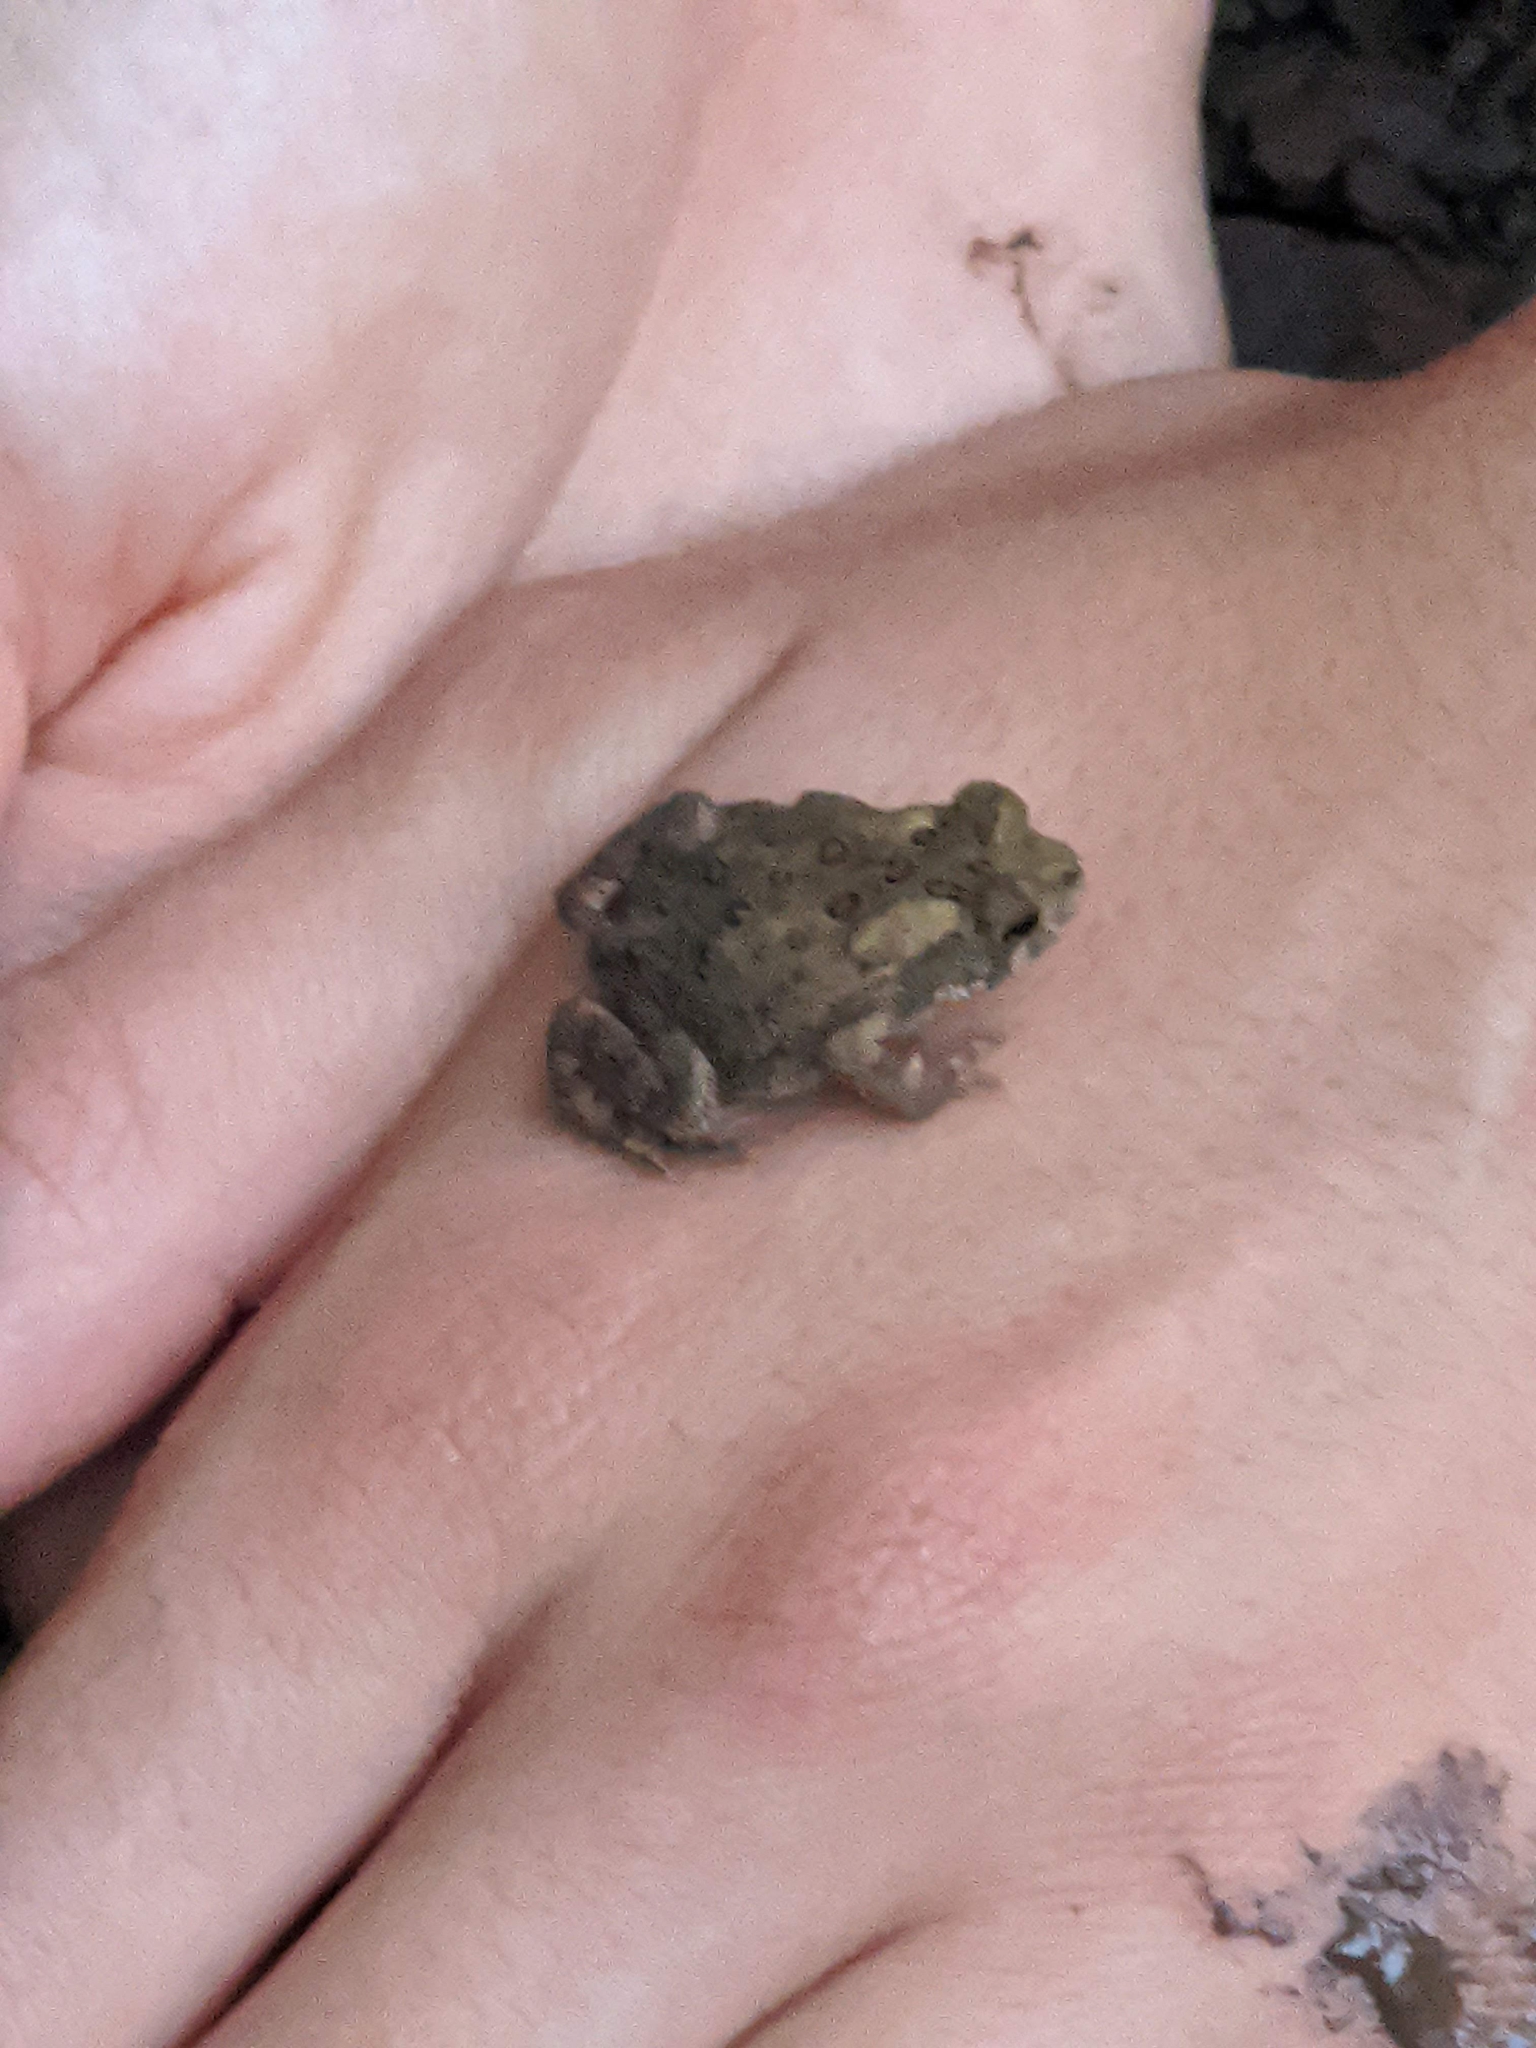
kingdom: Animalia
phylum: Chordata
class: Amphibia
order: Anura
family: Bufonidae
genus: Anaxyrus
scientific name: Anaxyrus americanus
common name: American toad
